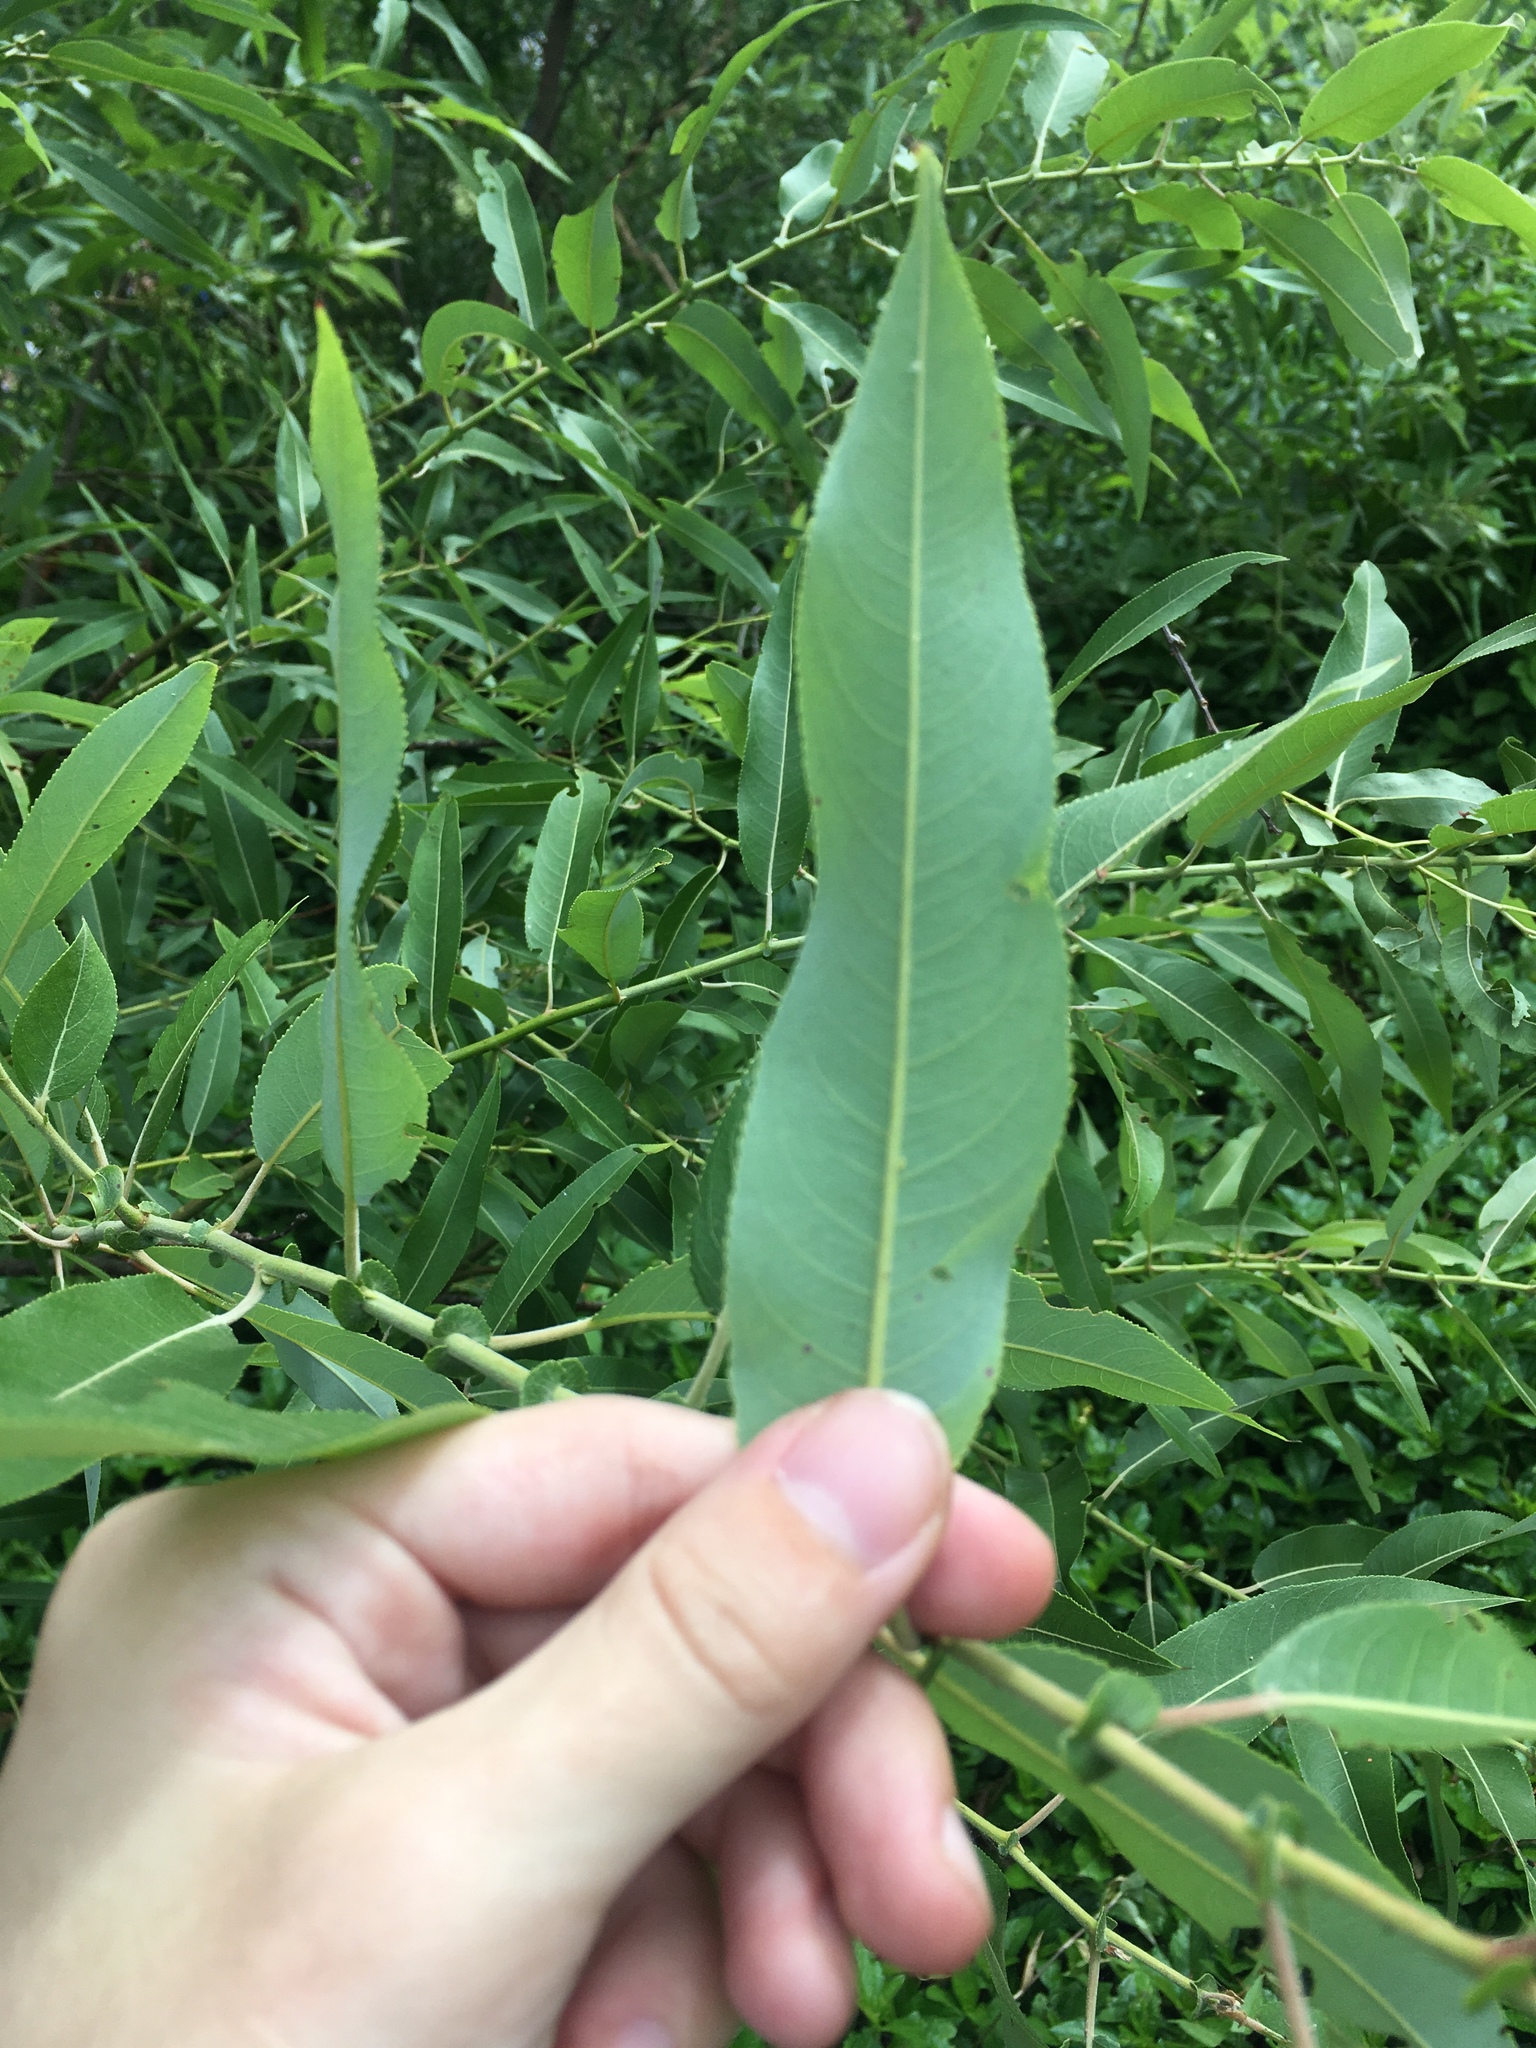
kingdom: Plantae
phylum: Tracheophyta
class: Magnoliopsida
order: Malpighiales
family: Salicaceae
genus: Salix
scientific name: Salix caroliniana
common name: Carolina willow
